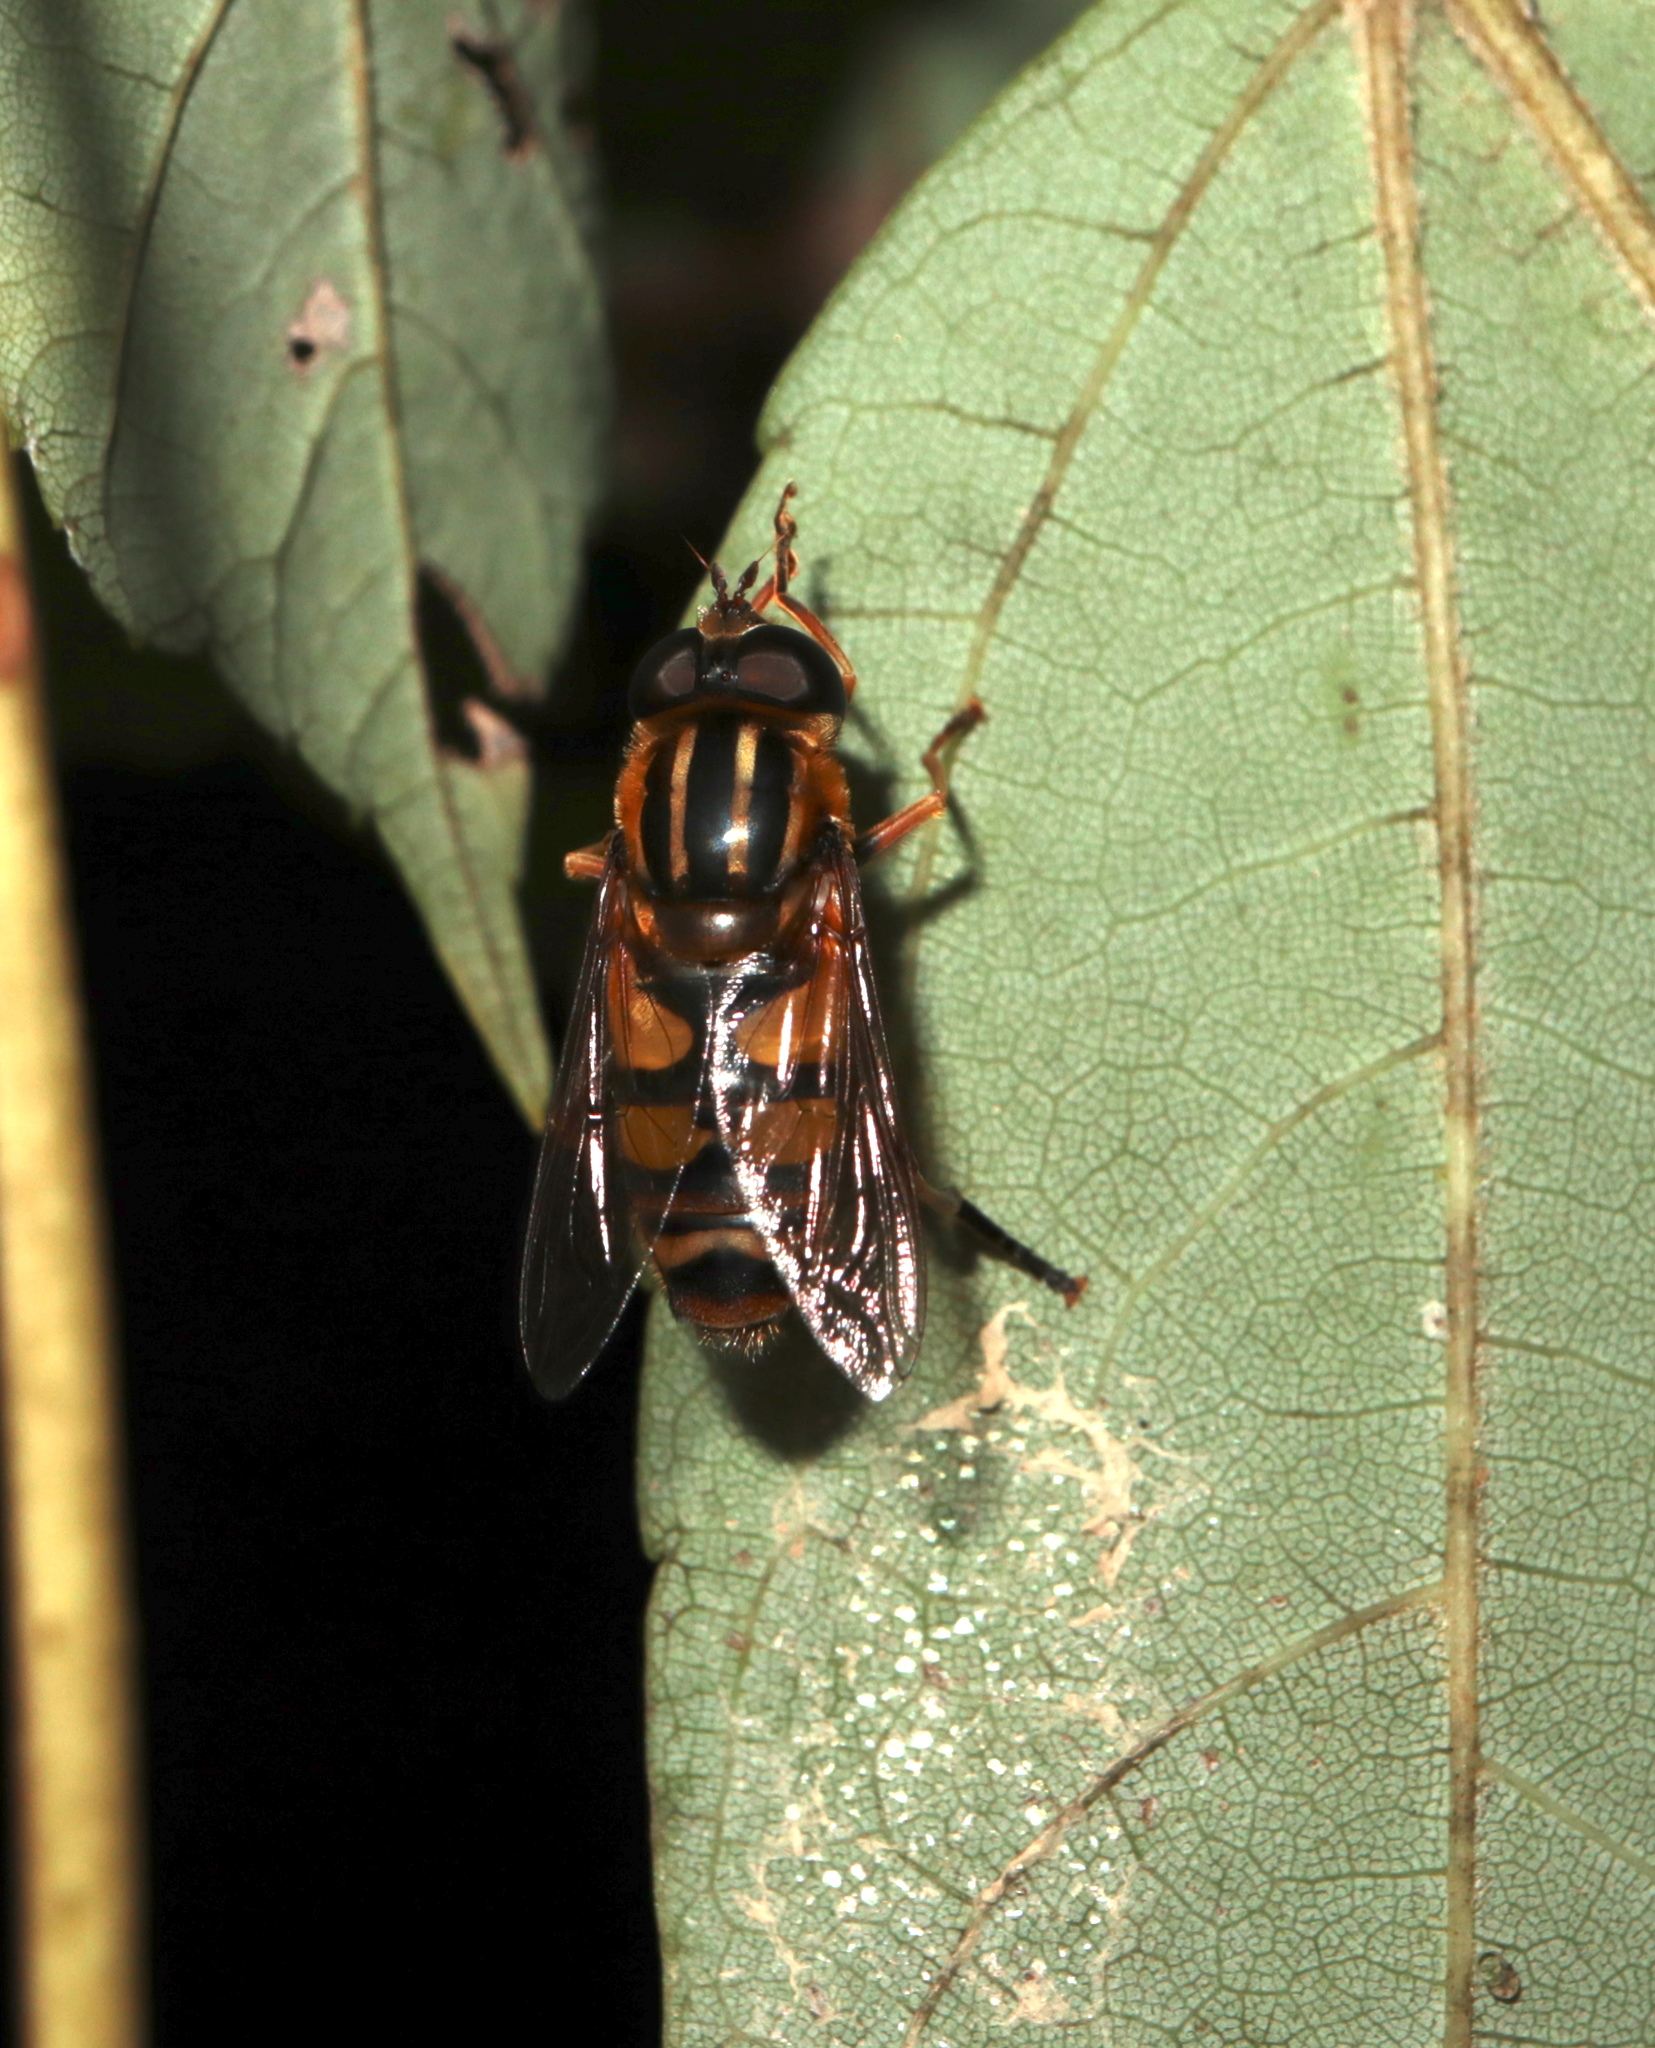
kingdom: Animalia
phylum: Arthropoda
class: Insecta
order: Diptera
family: Syrphidae
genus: Helophilus
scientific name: Helophilus fasciatus
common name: Narrow-headed marsh fly
